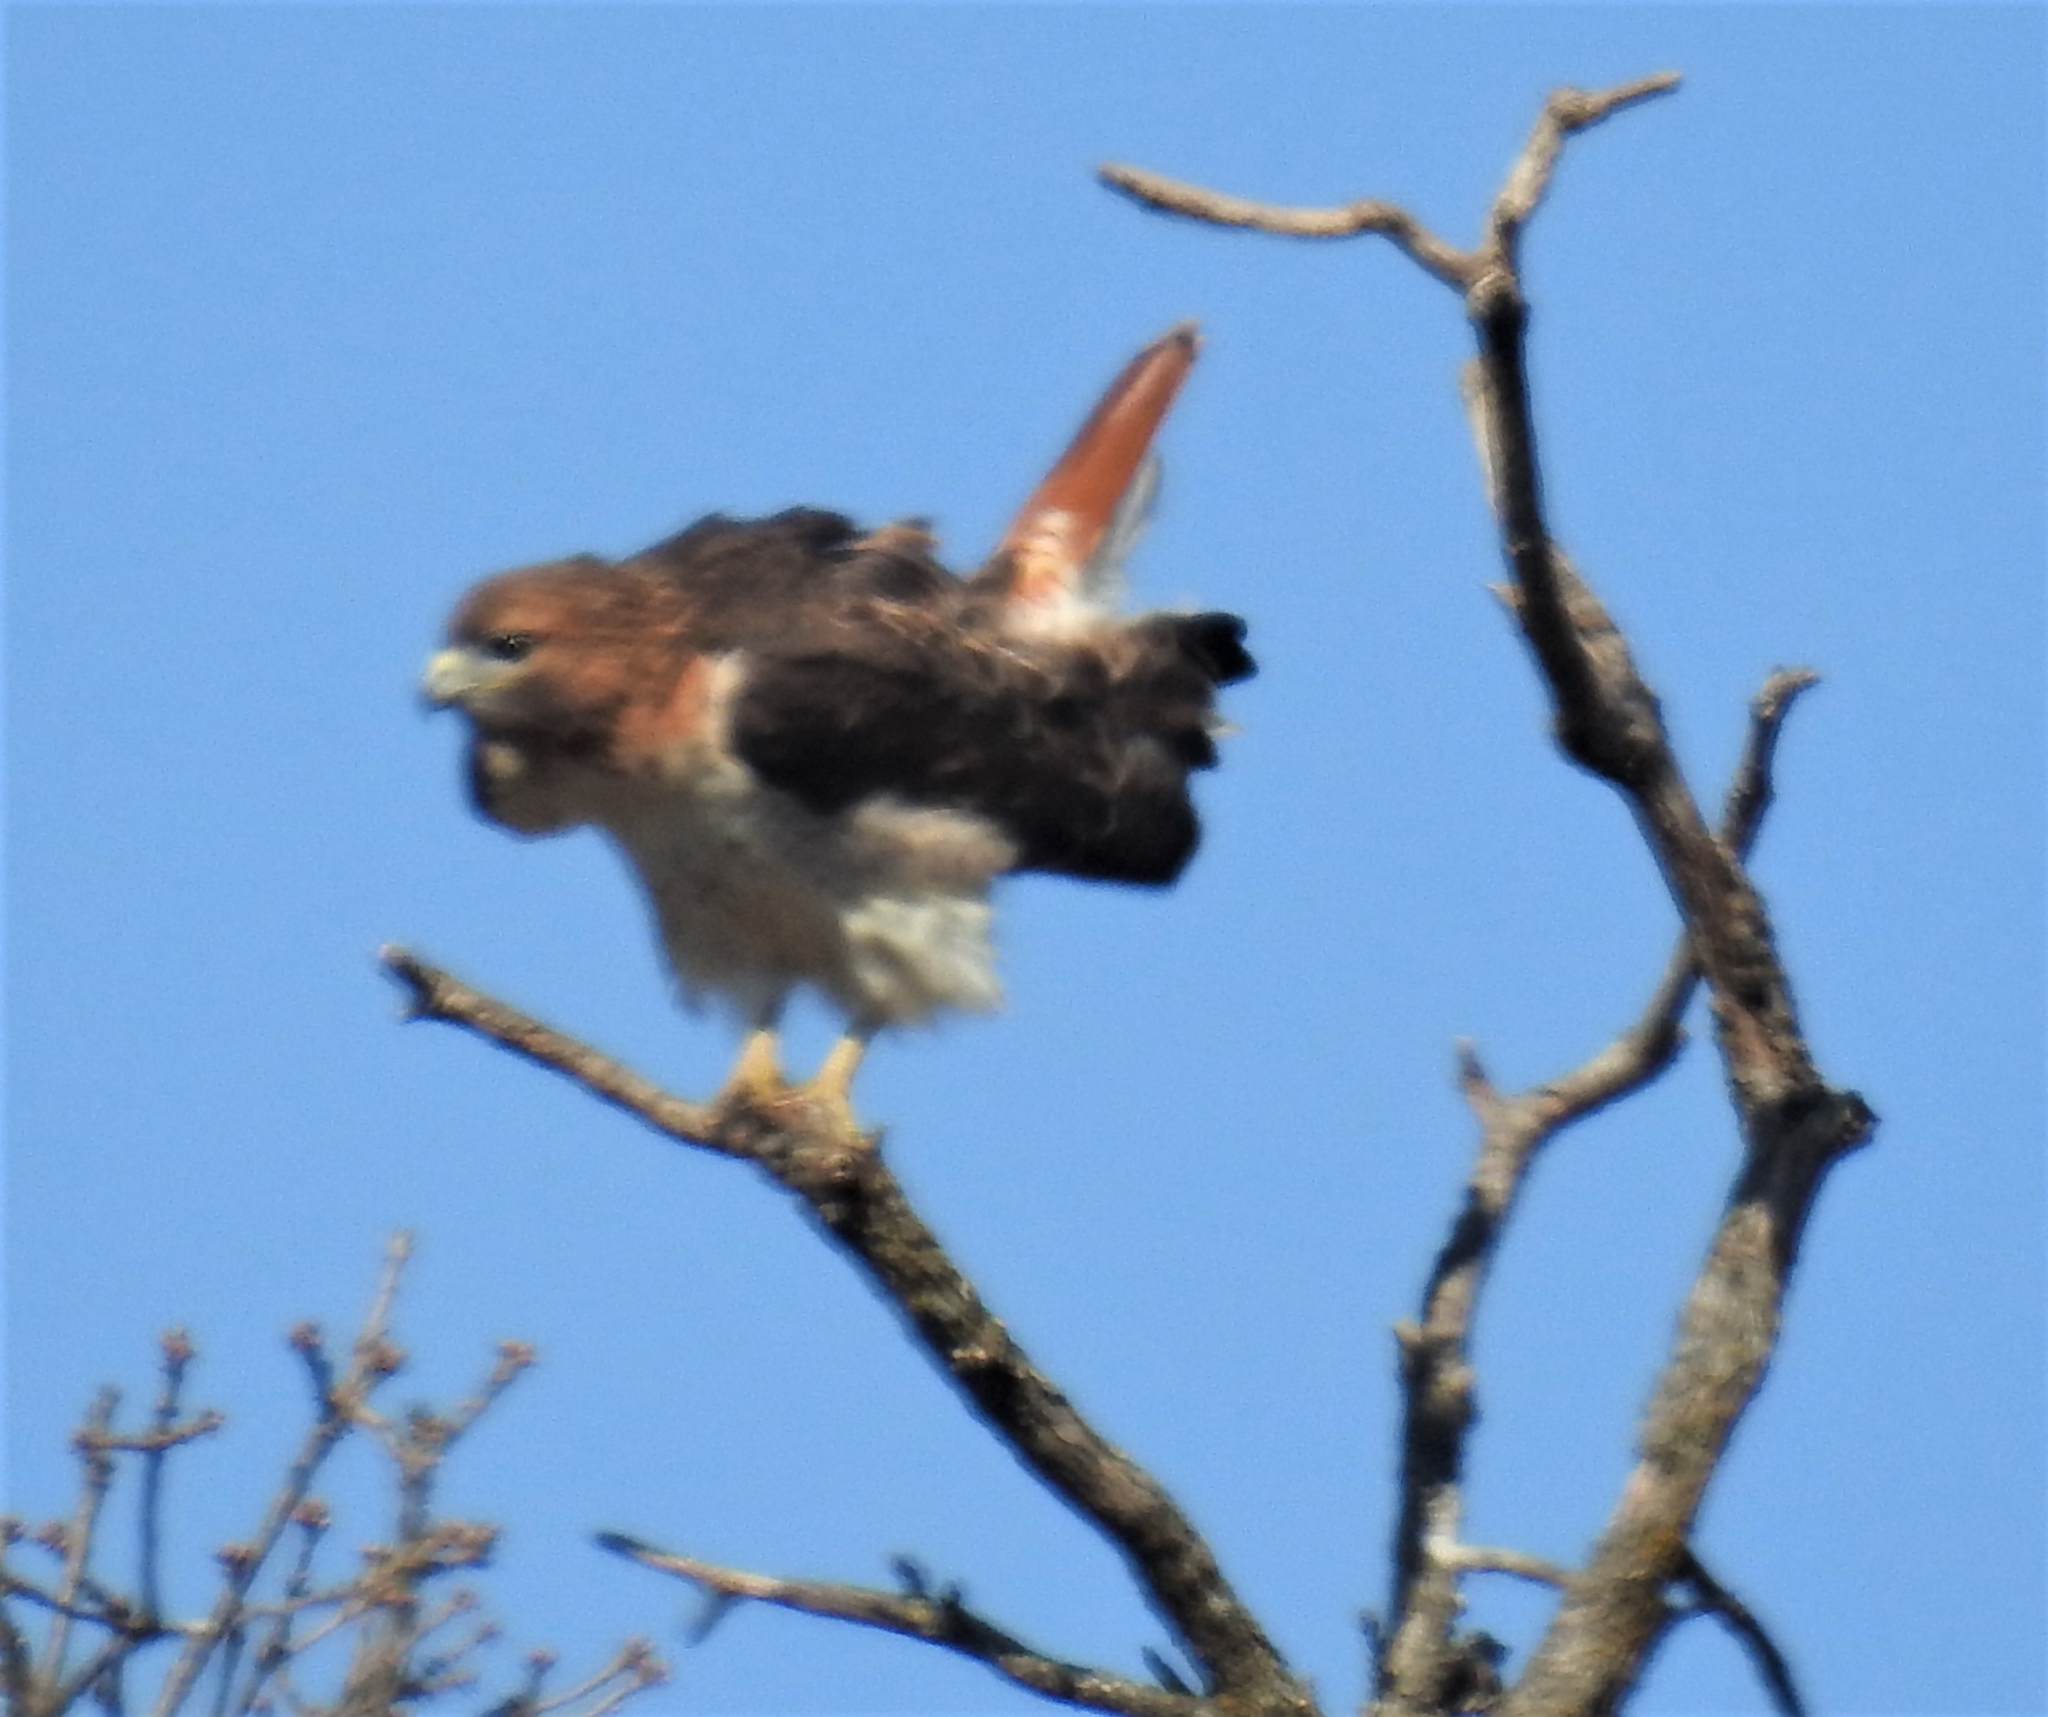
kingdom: Animalia
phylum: Chordata
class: Aves
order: Accipitriformes
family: Accipitridae
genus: Buteo
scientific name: Buteo jamaicensis
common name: Red-tailed hawk
